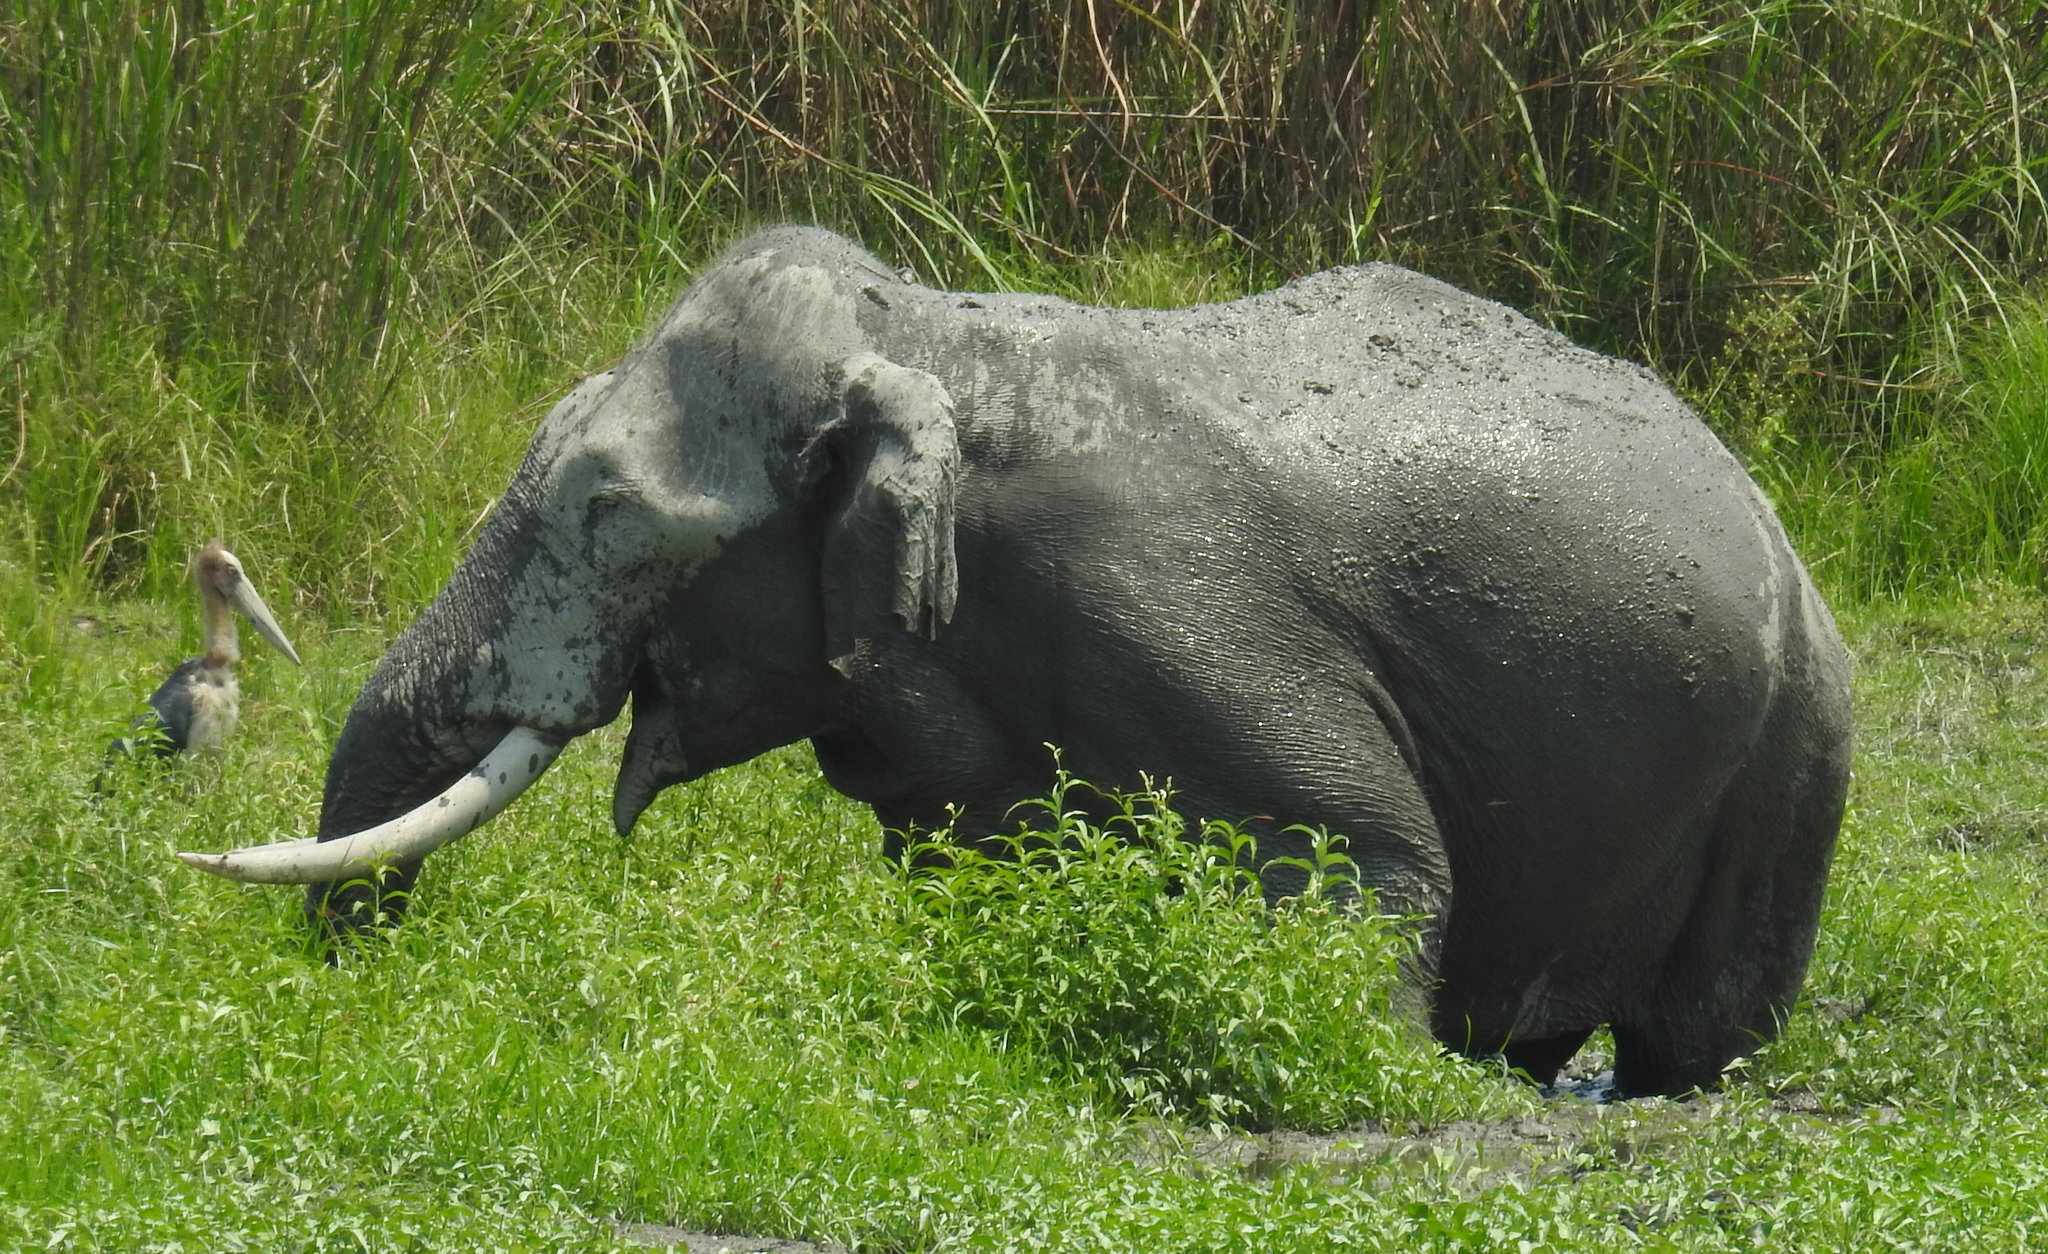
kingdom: Animalia
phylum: Chordata
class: Mammalia
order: Proboscidea
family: Elephantidae
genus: Elephas
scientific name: Elephas maximus
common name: Asian elephant
